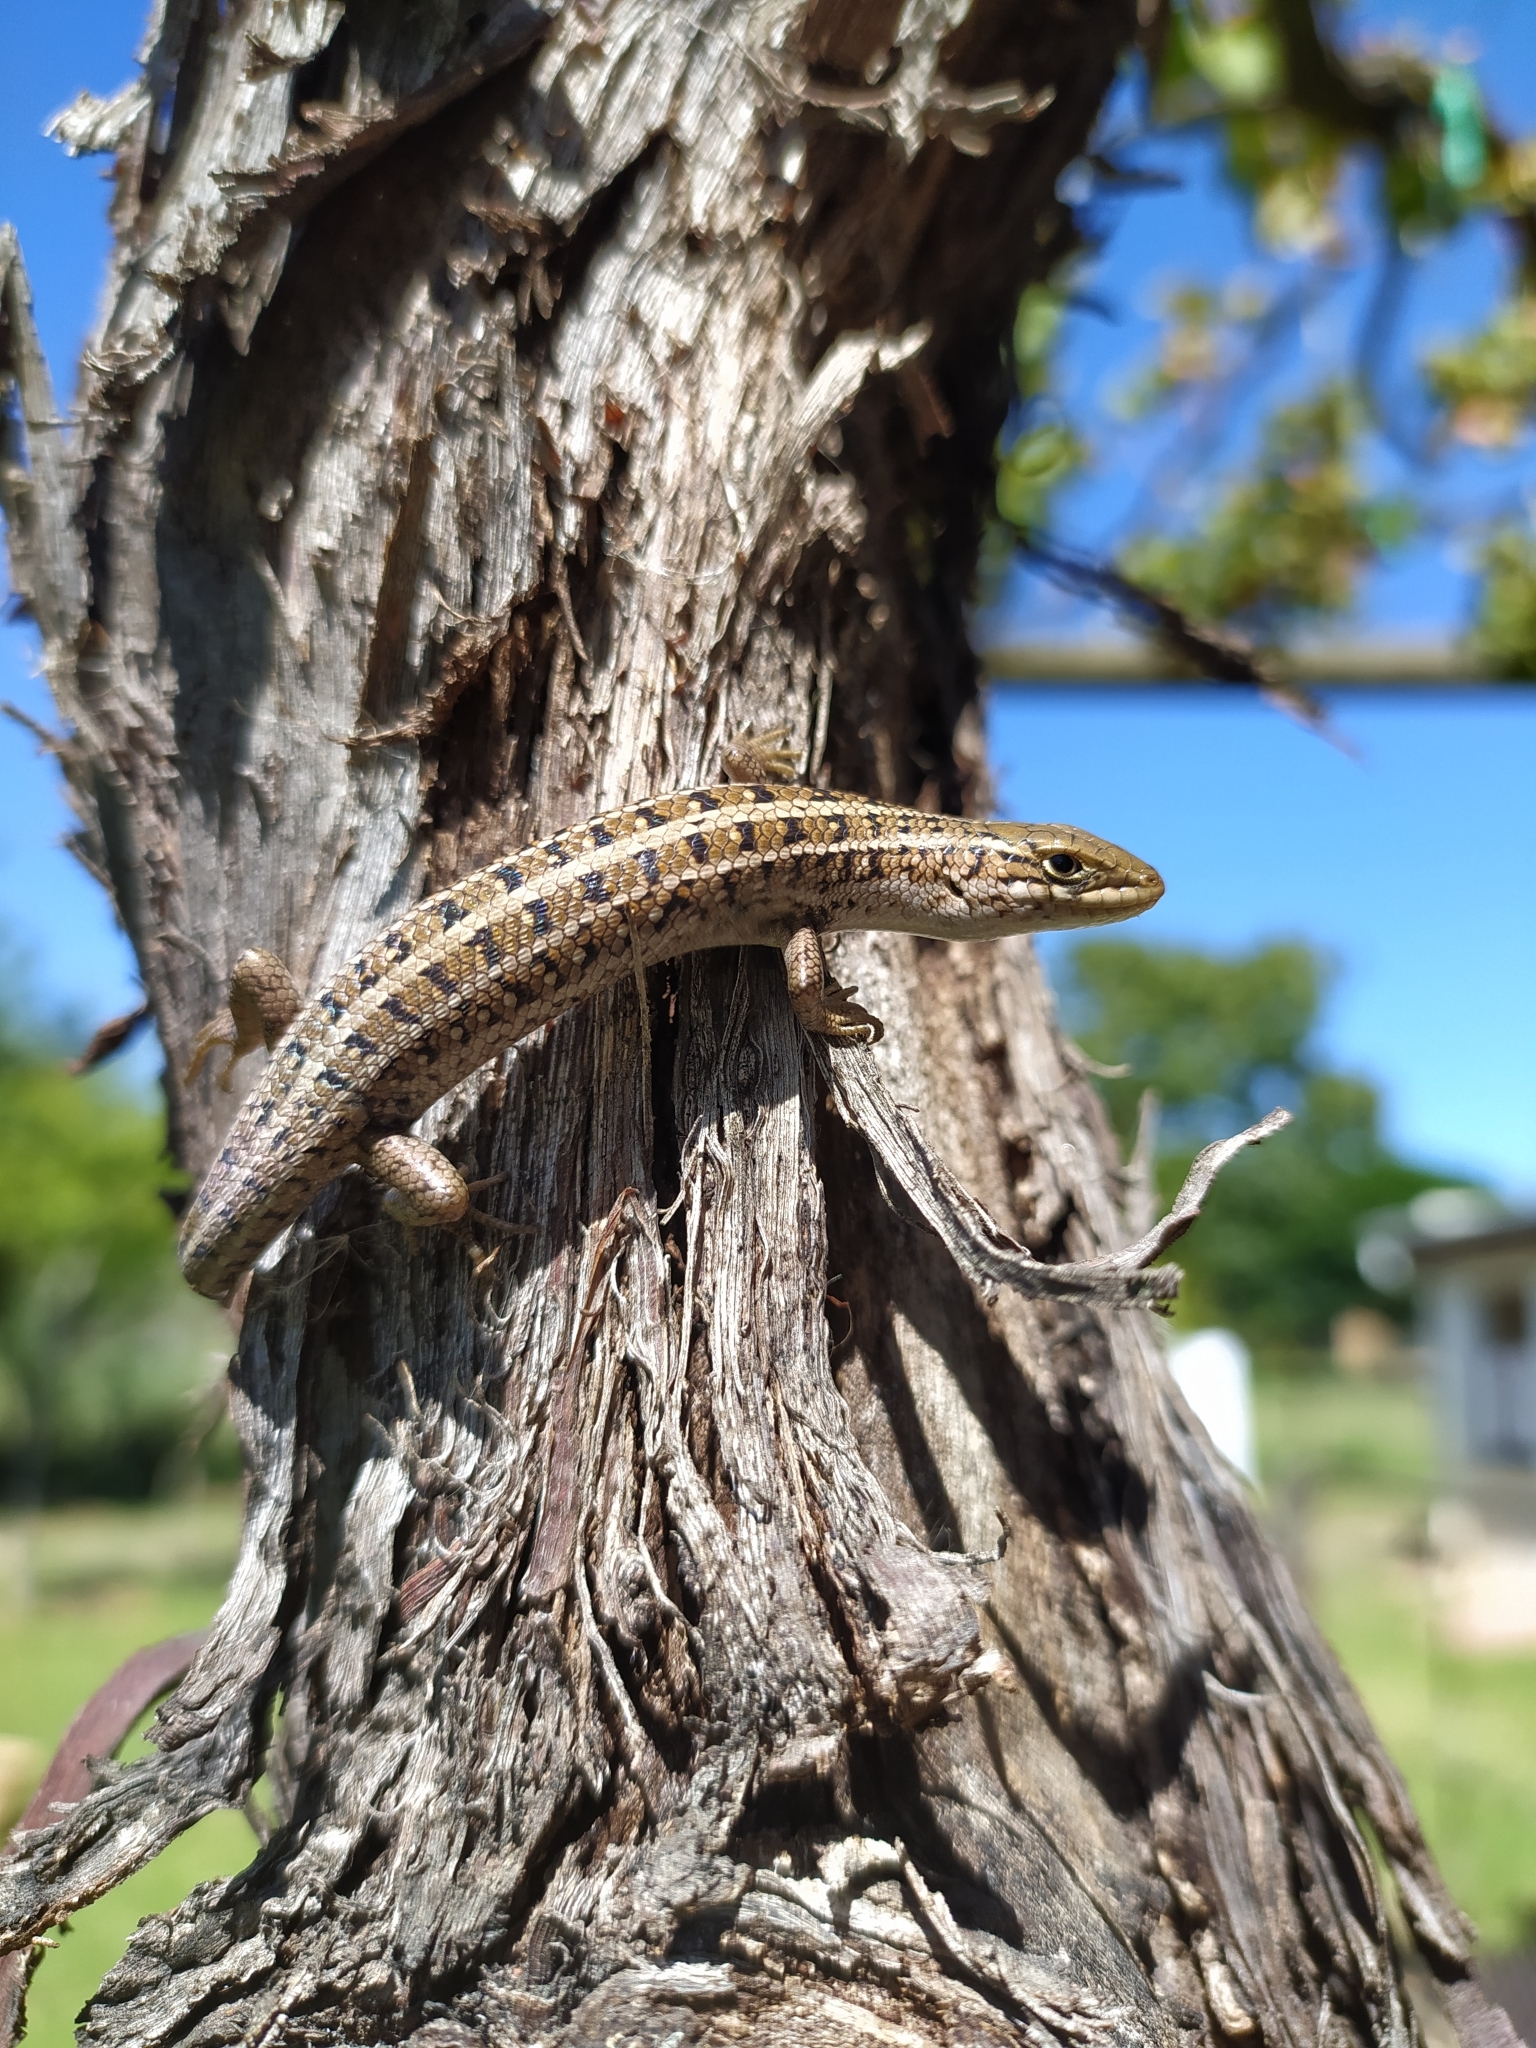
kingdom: Animalia
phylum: Chordata
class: Squamata
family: Scincidae
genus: Trachylepis
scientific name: Trachylepis capensis
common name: Cape skink
